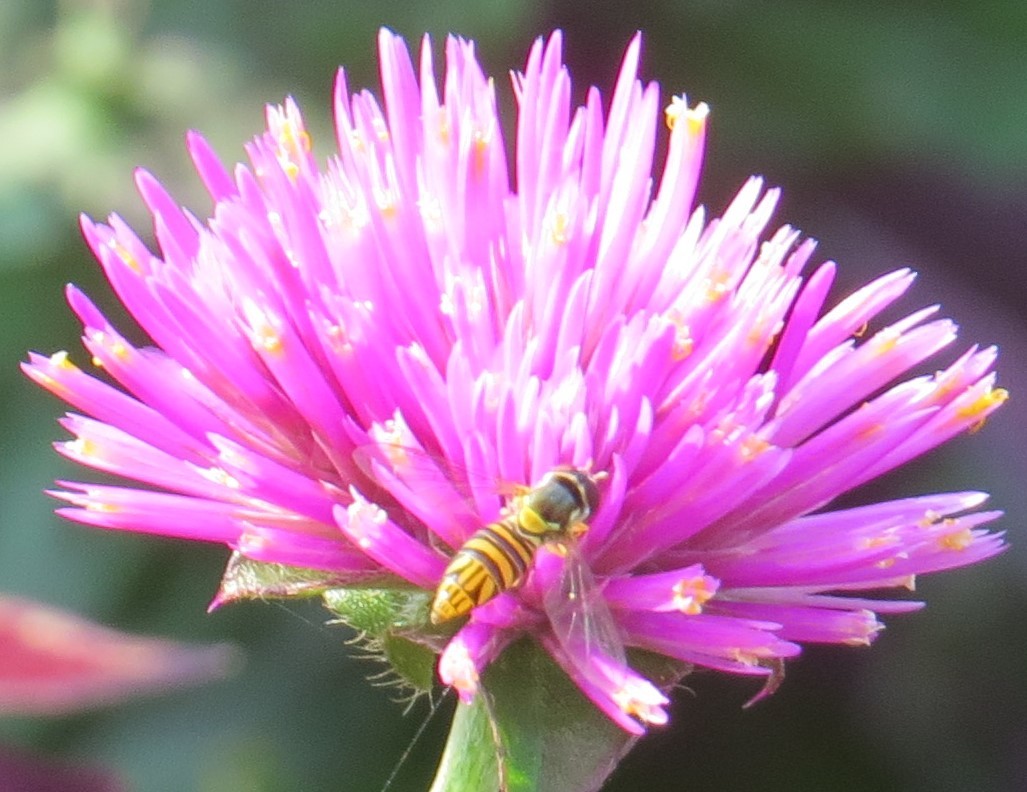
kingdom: Animalia
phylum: Arthropoda
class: Insecta
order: Diptera
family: Syrphidae
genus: Allograpta
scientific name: Allograpta obliqua
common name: Common oblique syrphid
